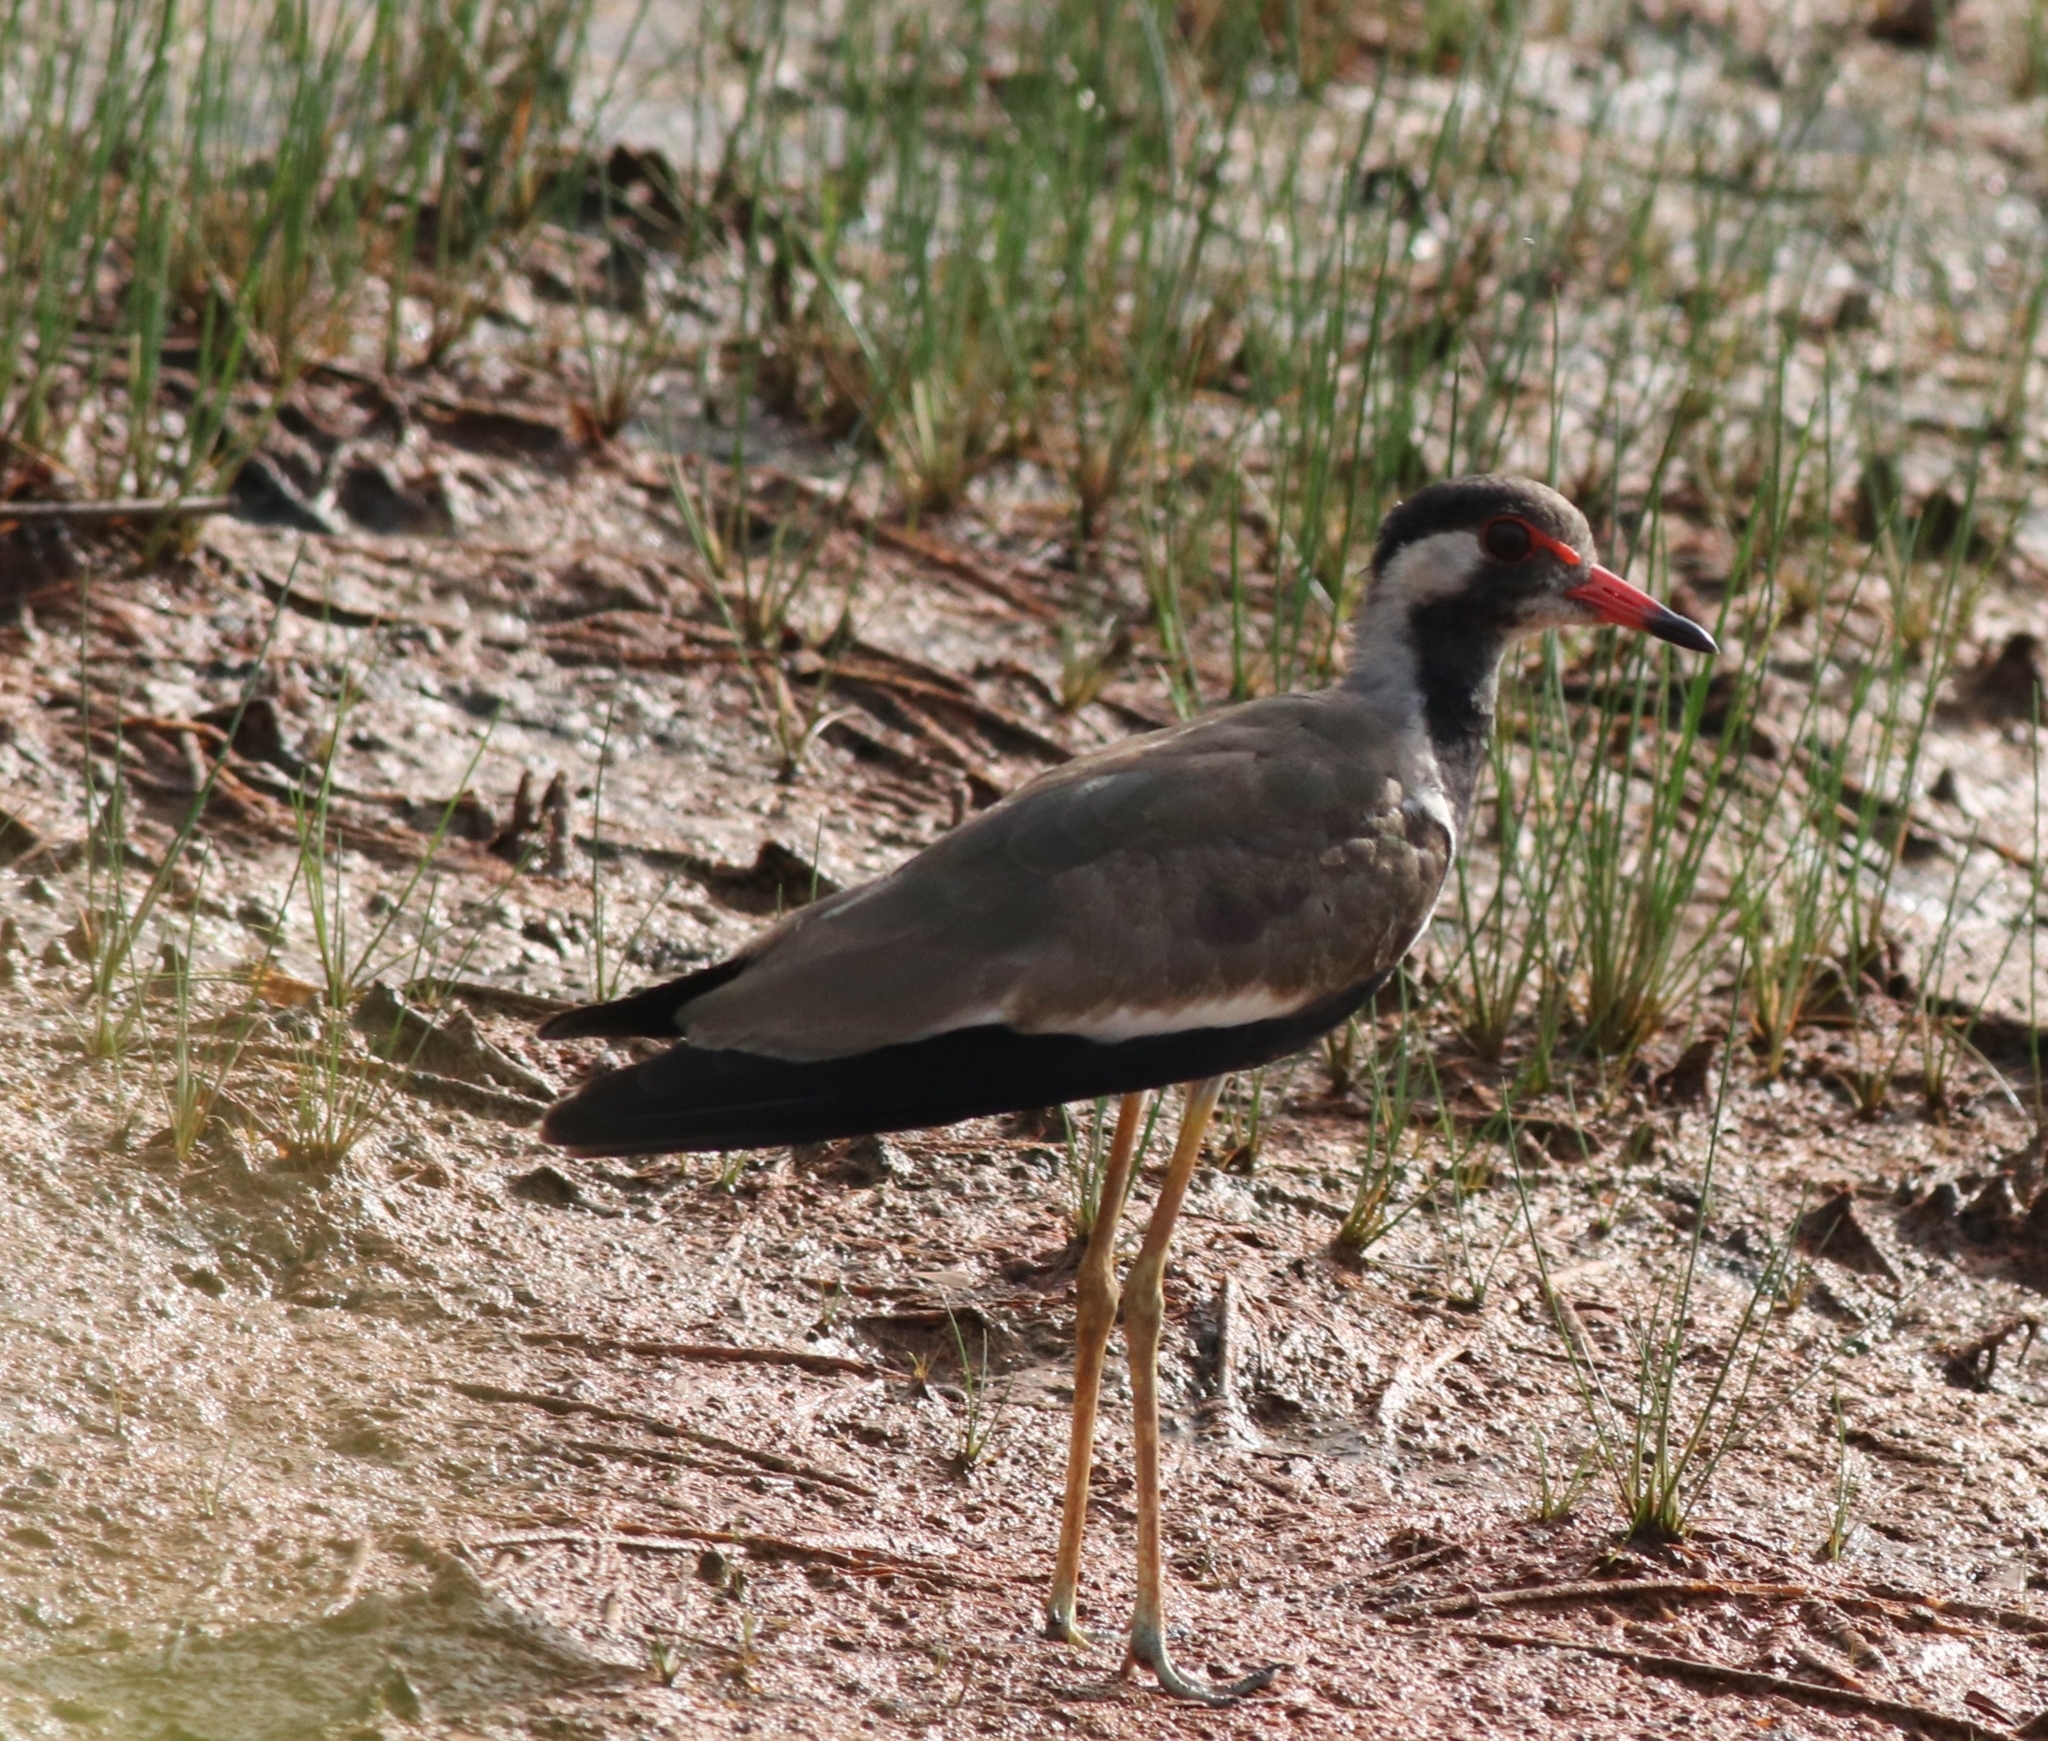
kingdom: Animalia
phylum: Chordata
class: Aves
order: Charadriiformes
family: Charadriidae
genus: Vanellus
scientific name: Vanellus indicus
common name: Red-wattled lapwing
